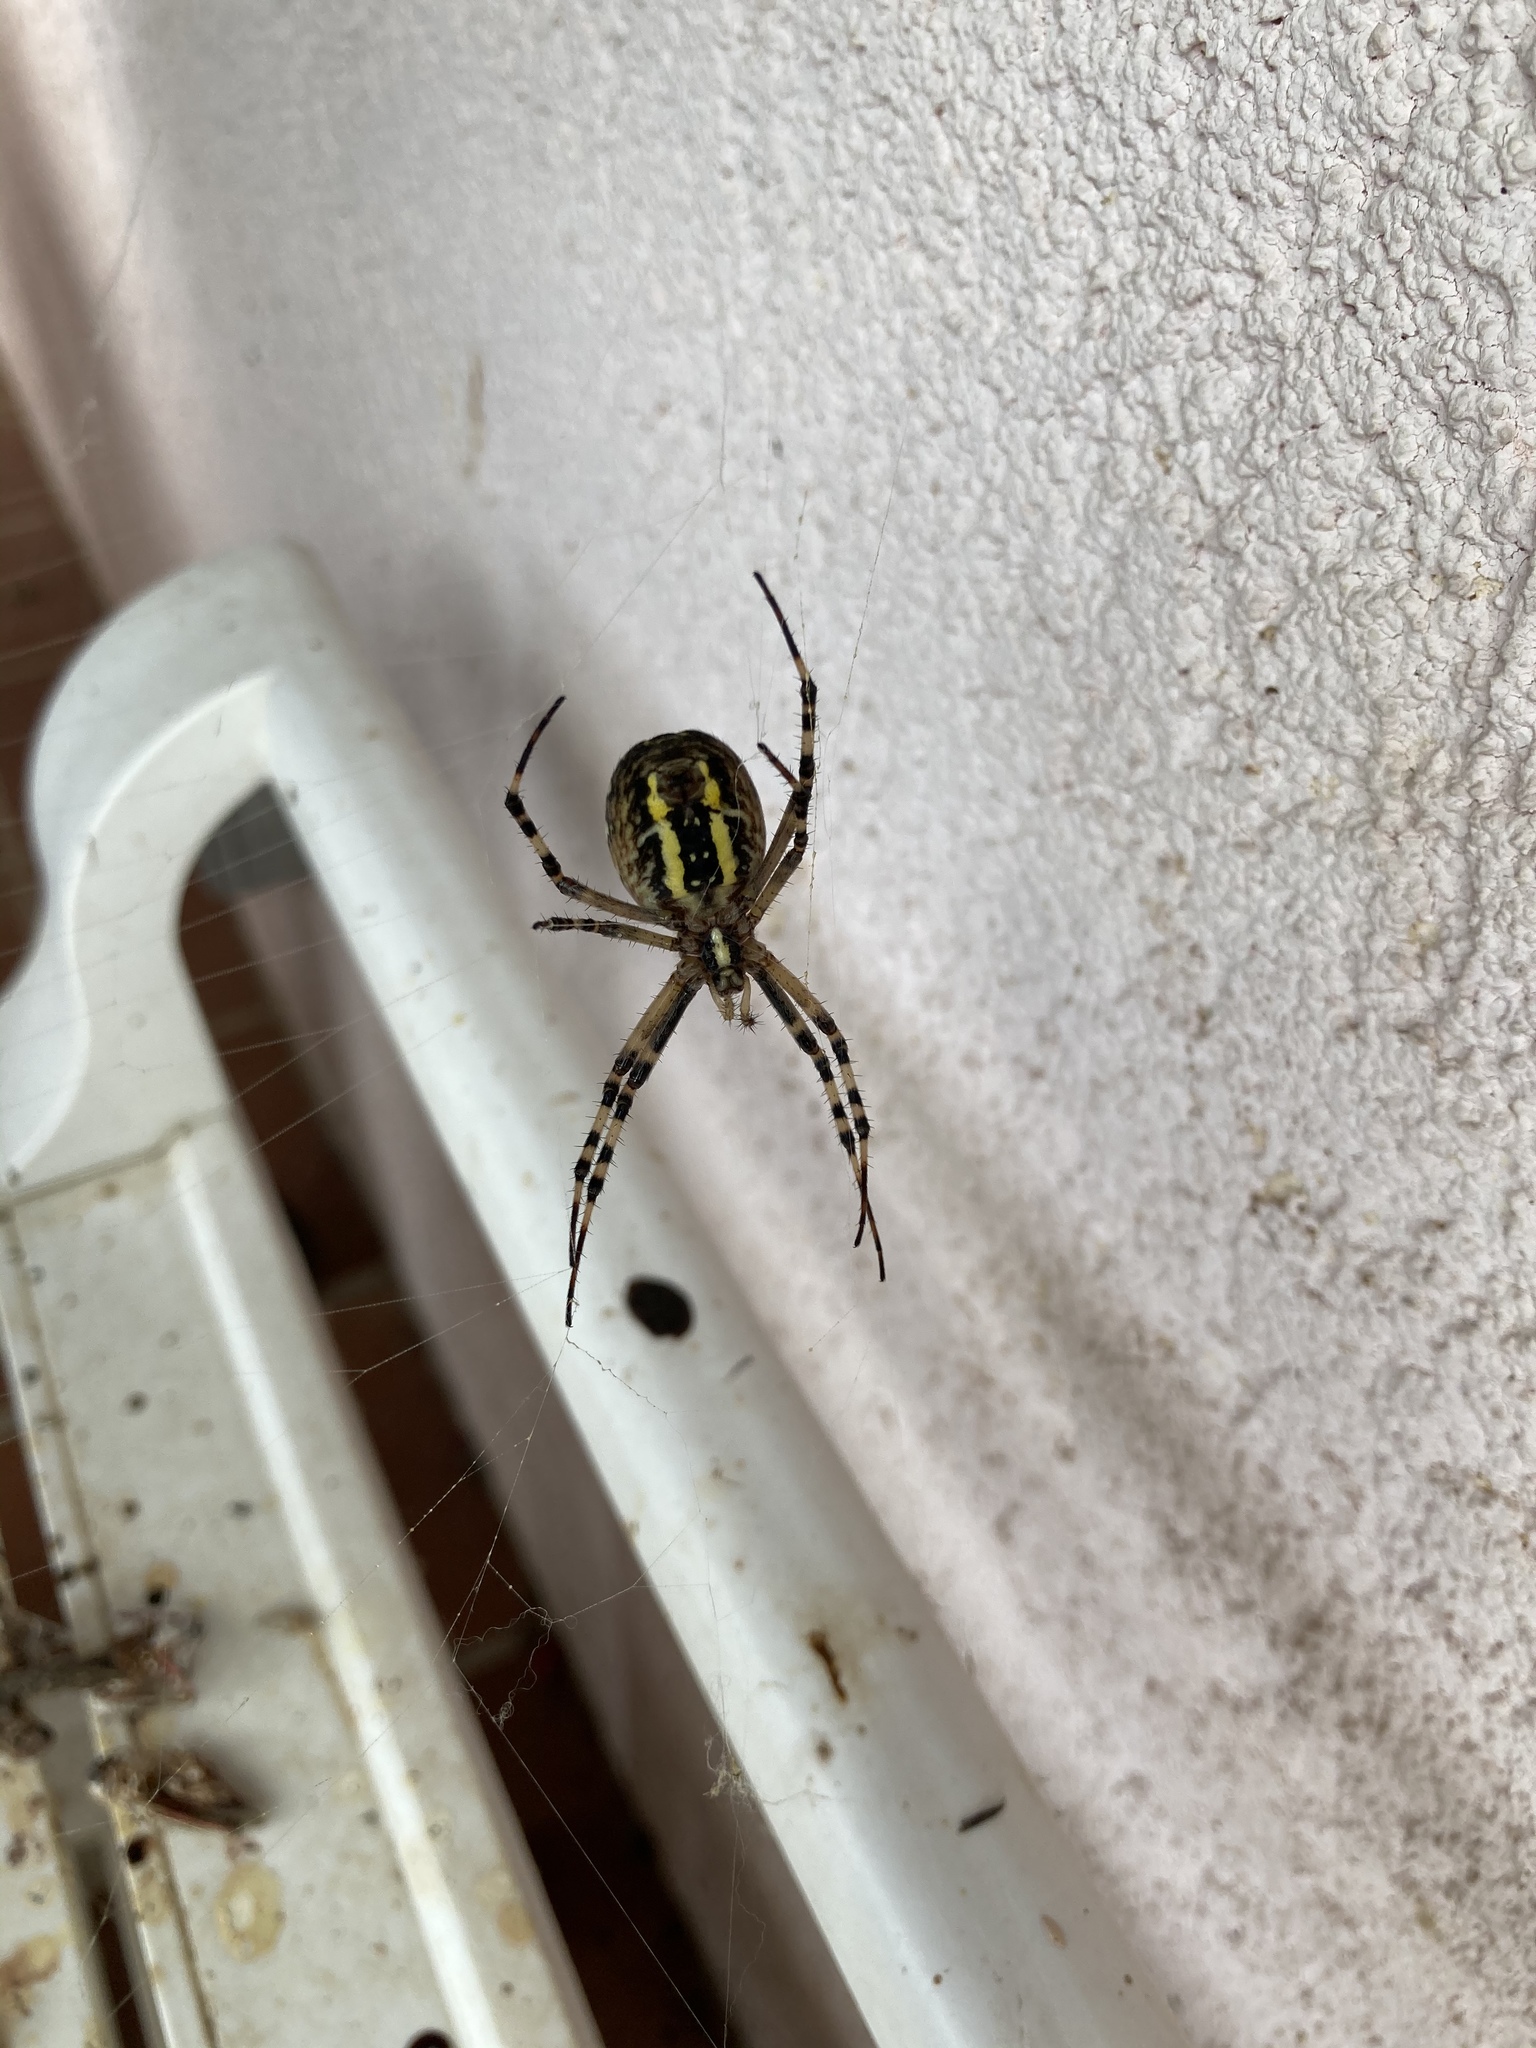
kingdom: Animalia
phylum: Arthropoda
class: Arachnida
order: Araneae
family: Araneidae
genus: Argiope
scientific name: Argiope bruennichi
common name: Wasp spider
